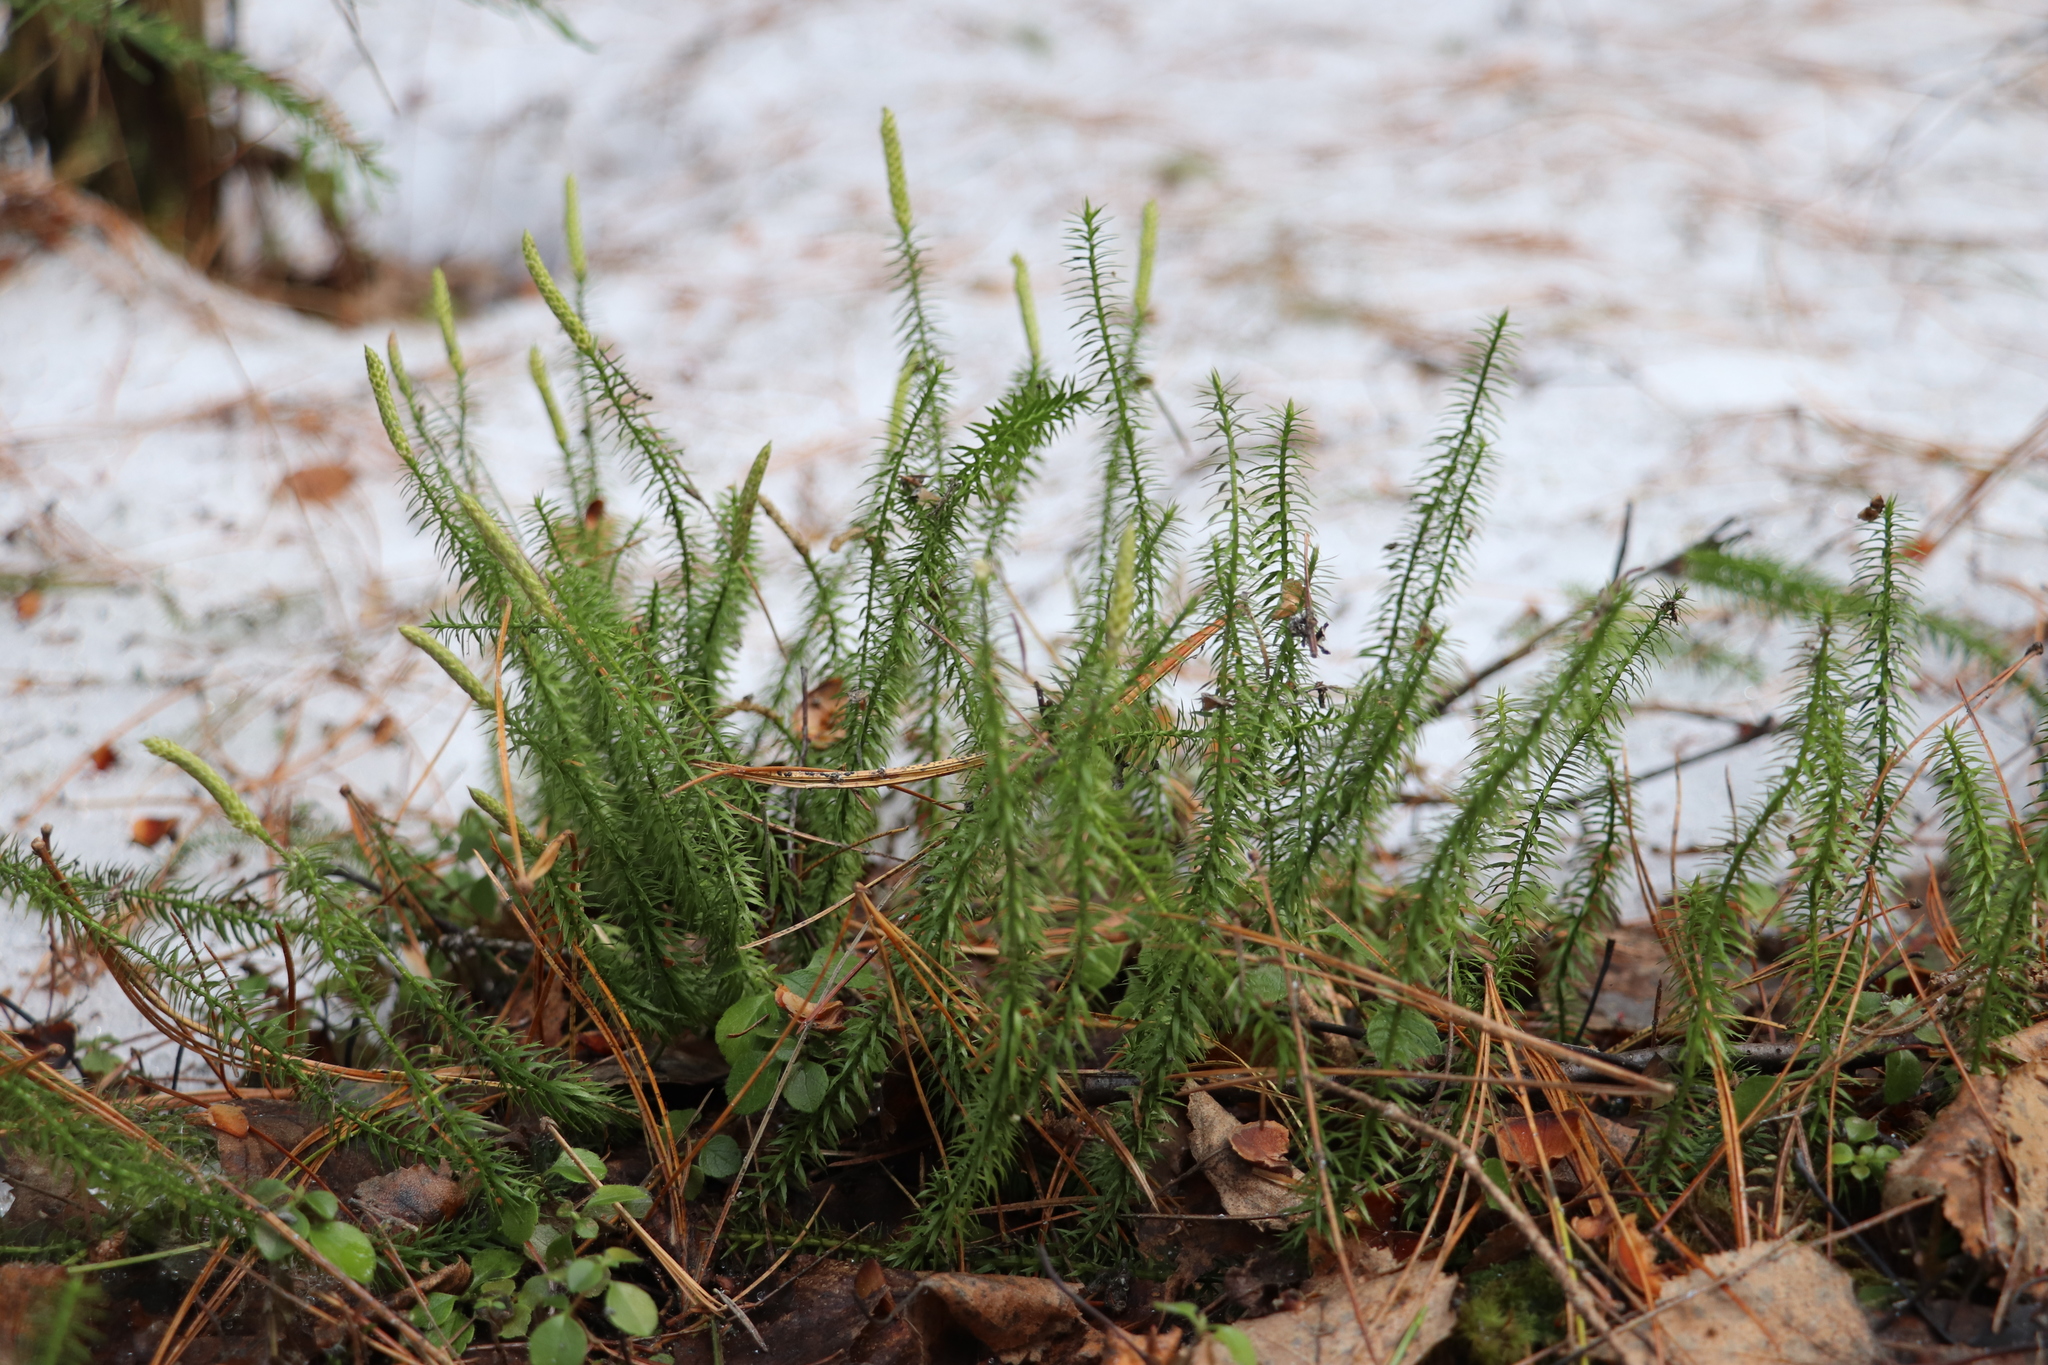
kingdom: Plantae
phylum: Tracheophyta
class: Lycopodiopsida
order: Lycopodiales
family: Lycopodiaceae
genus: Spinulum
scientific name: Spinulum annotinum
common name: Interrupted club-moss
